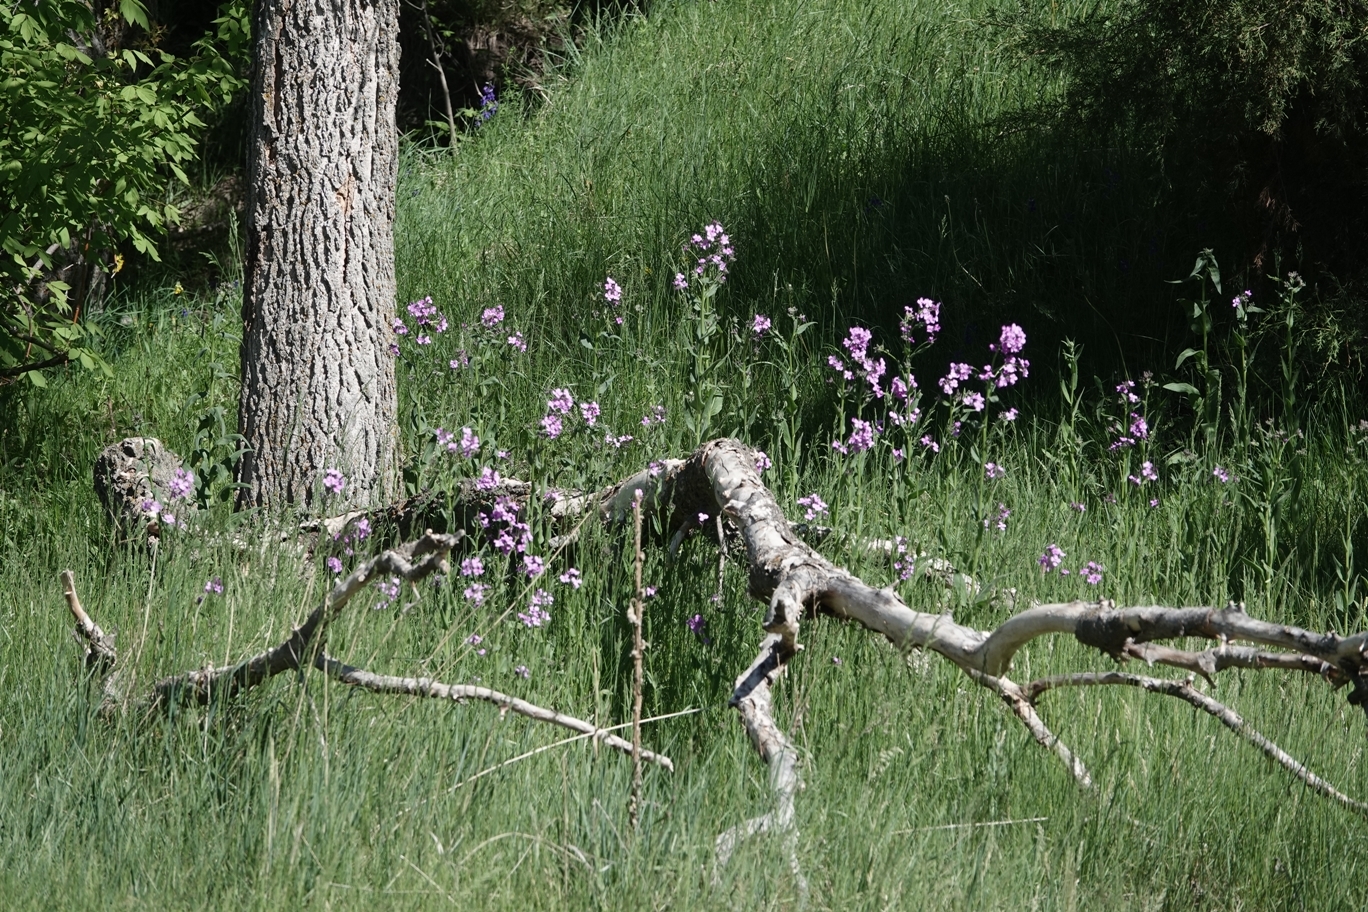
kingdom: Plantae
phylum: Tracheophyta
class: Magnoliopsida
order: Brassicales
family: Brassicaceae
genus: Hesperis
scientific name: Hesperis matronalis
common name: Dame's-violet
